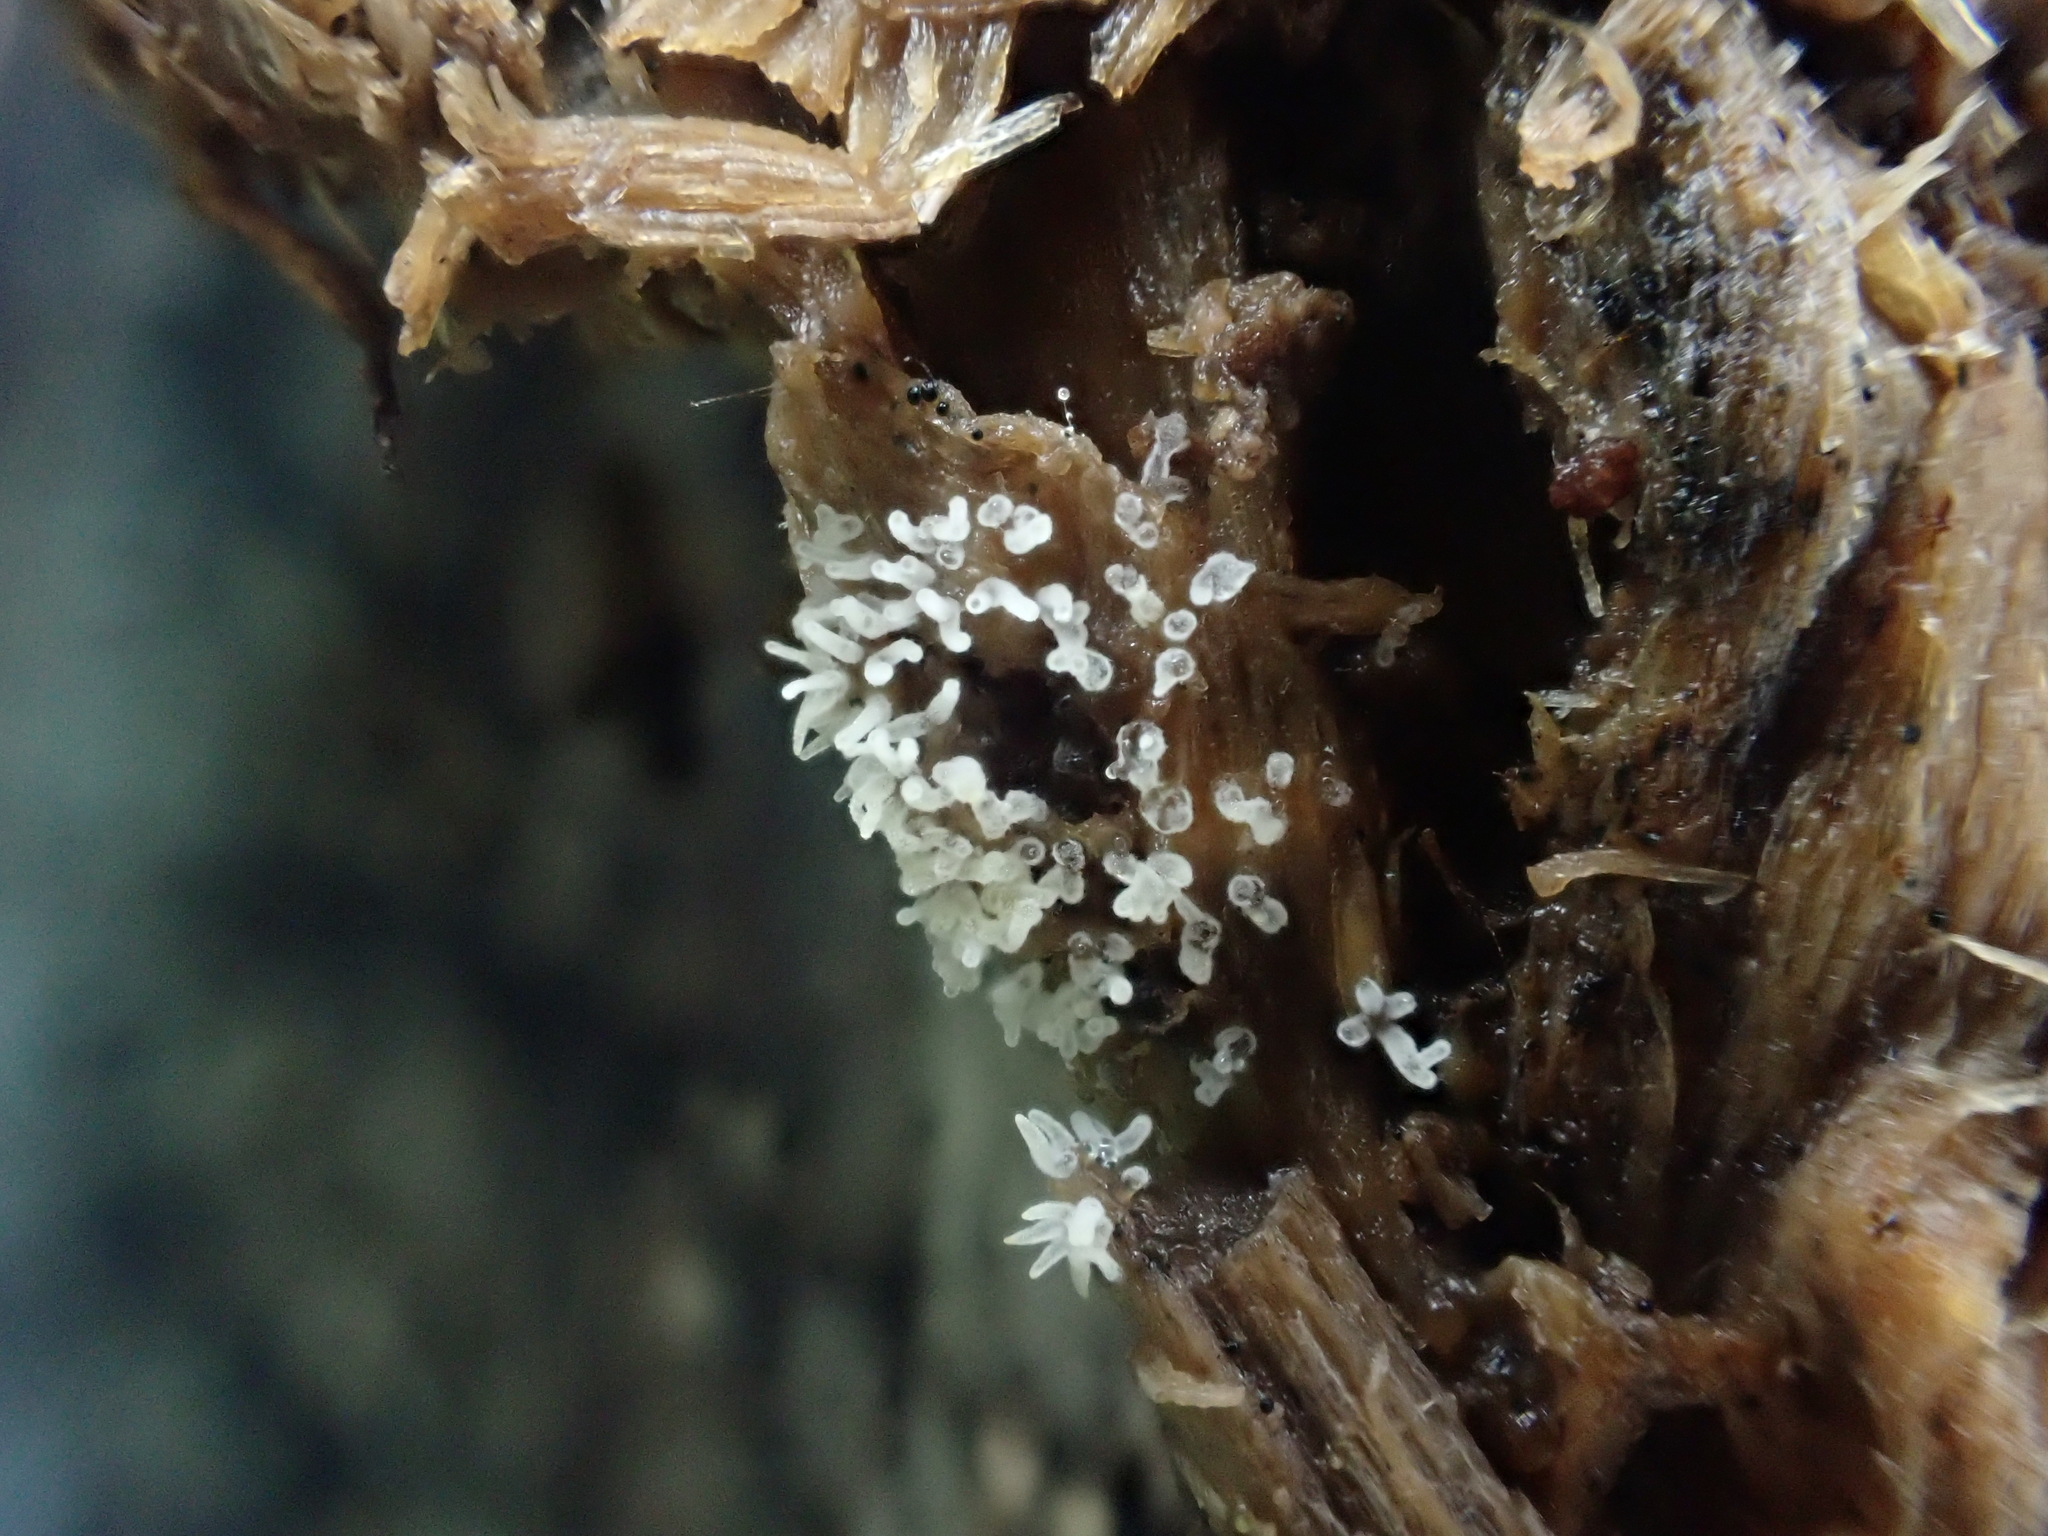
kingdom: Protozoa
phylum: Mycetozoa
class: Protosteliomycetes
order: Ceratiomyxales
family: Ceratiomyxaceae
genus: Ceratiomyxa
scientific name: Ceratiomyxa fruticulosa
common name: Honeycomb coral slime mold
